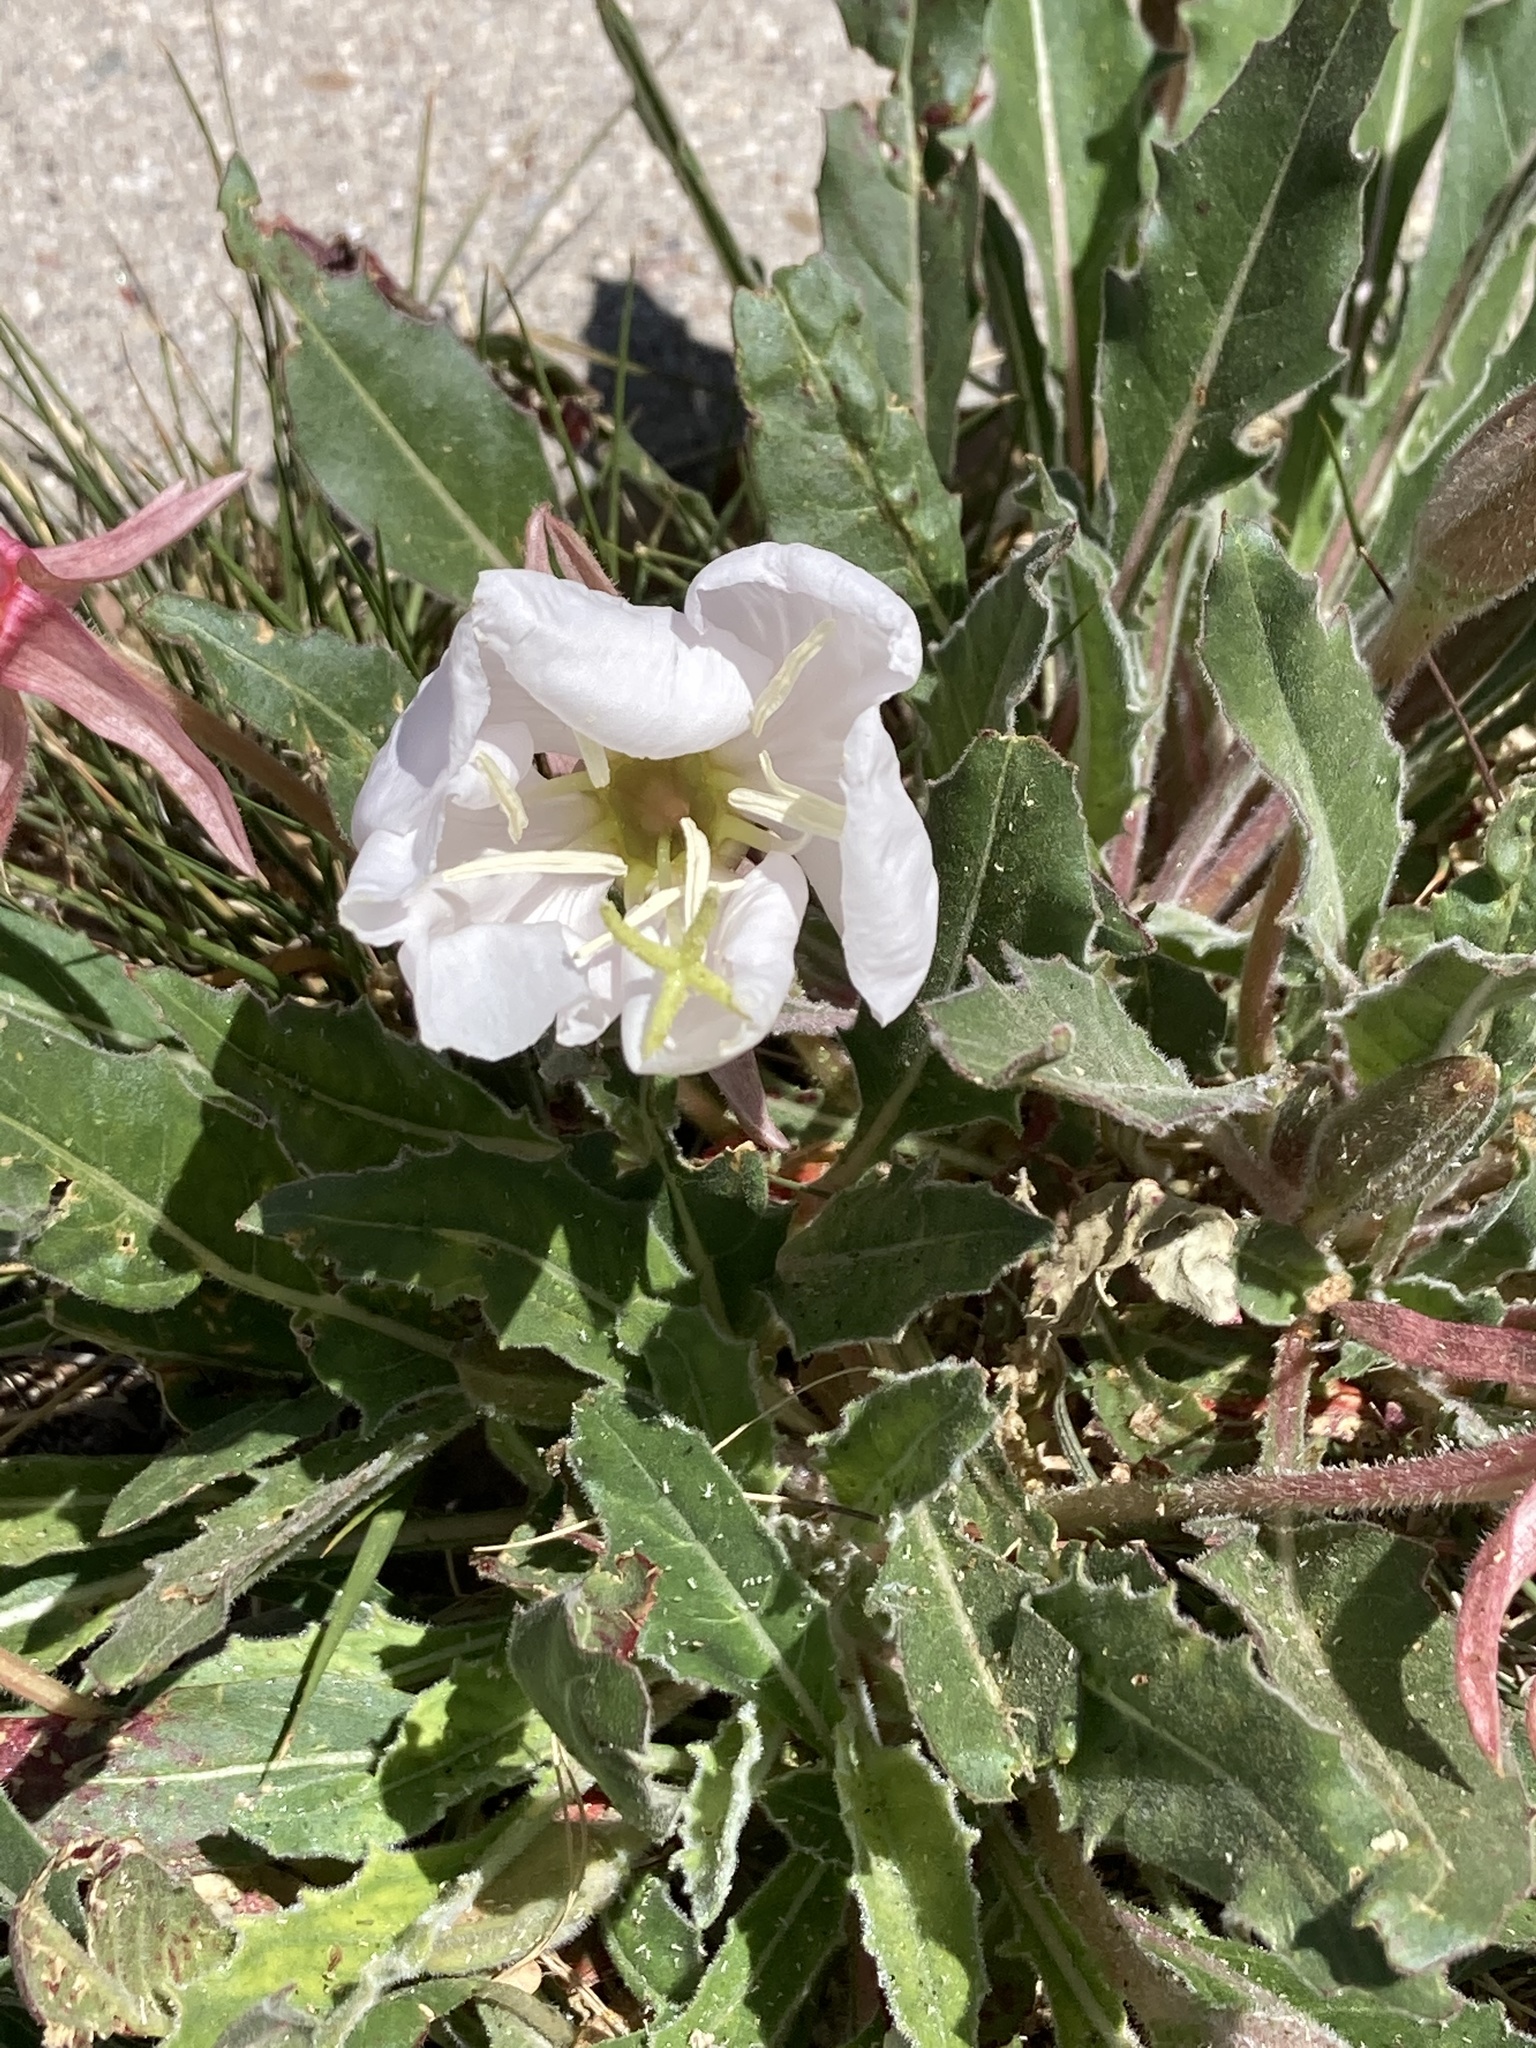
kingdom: Plantae
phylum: Tracheophyta
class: Magnoliopsida
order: Myrtales
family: Onagraceae
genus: Oenothera
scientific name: Oenothera cespitosa
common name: Tufted evening-primrose
